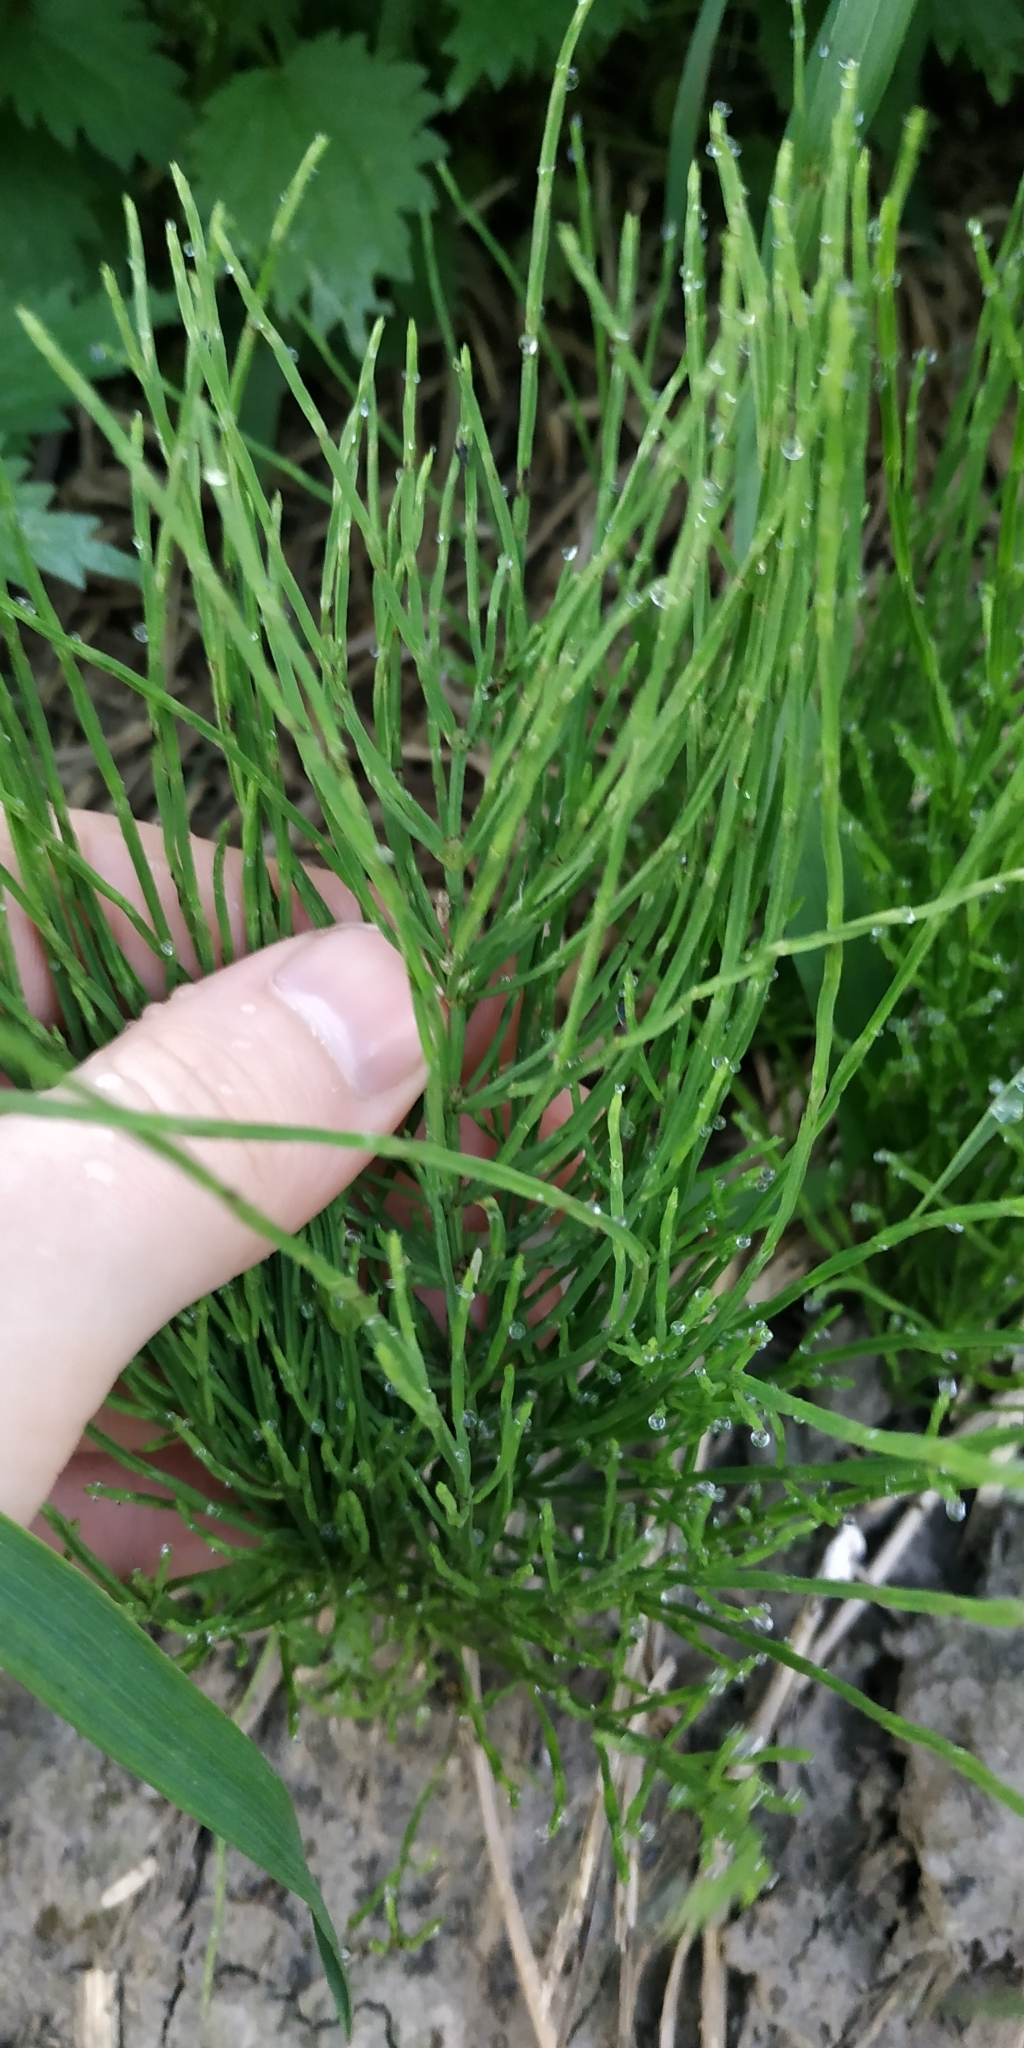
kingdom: Plantae
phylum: Tracheophyta
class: Polypodiopsida
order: Equisetales
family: Equisetaceae
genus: Equisetum
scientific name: Equisetum arvense
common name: Field horsetail
